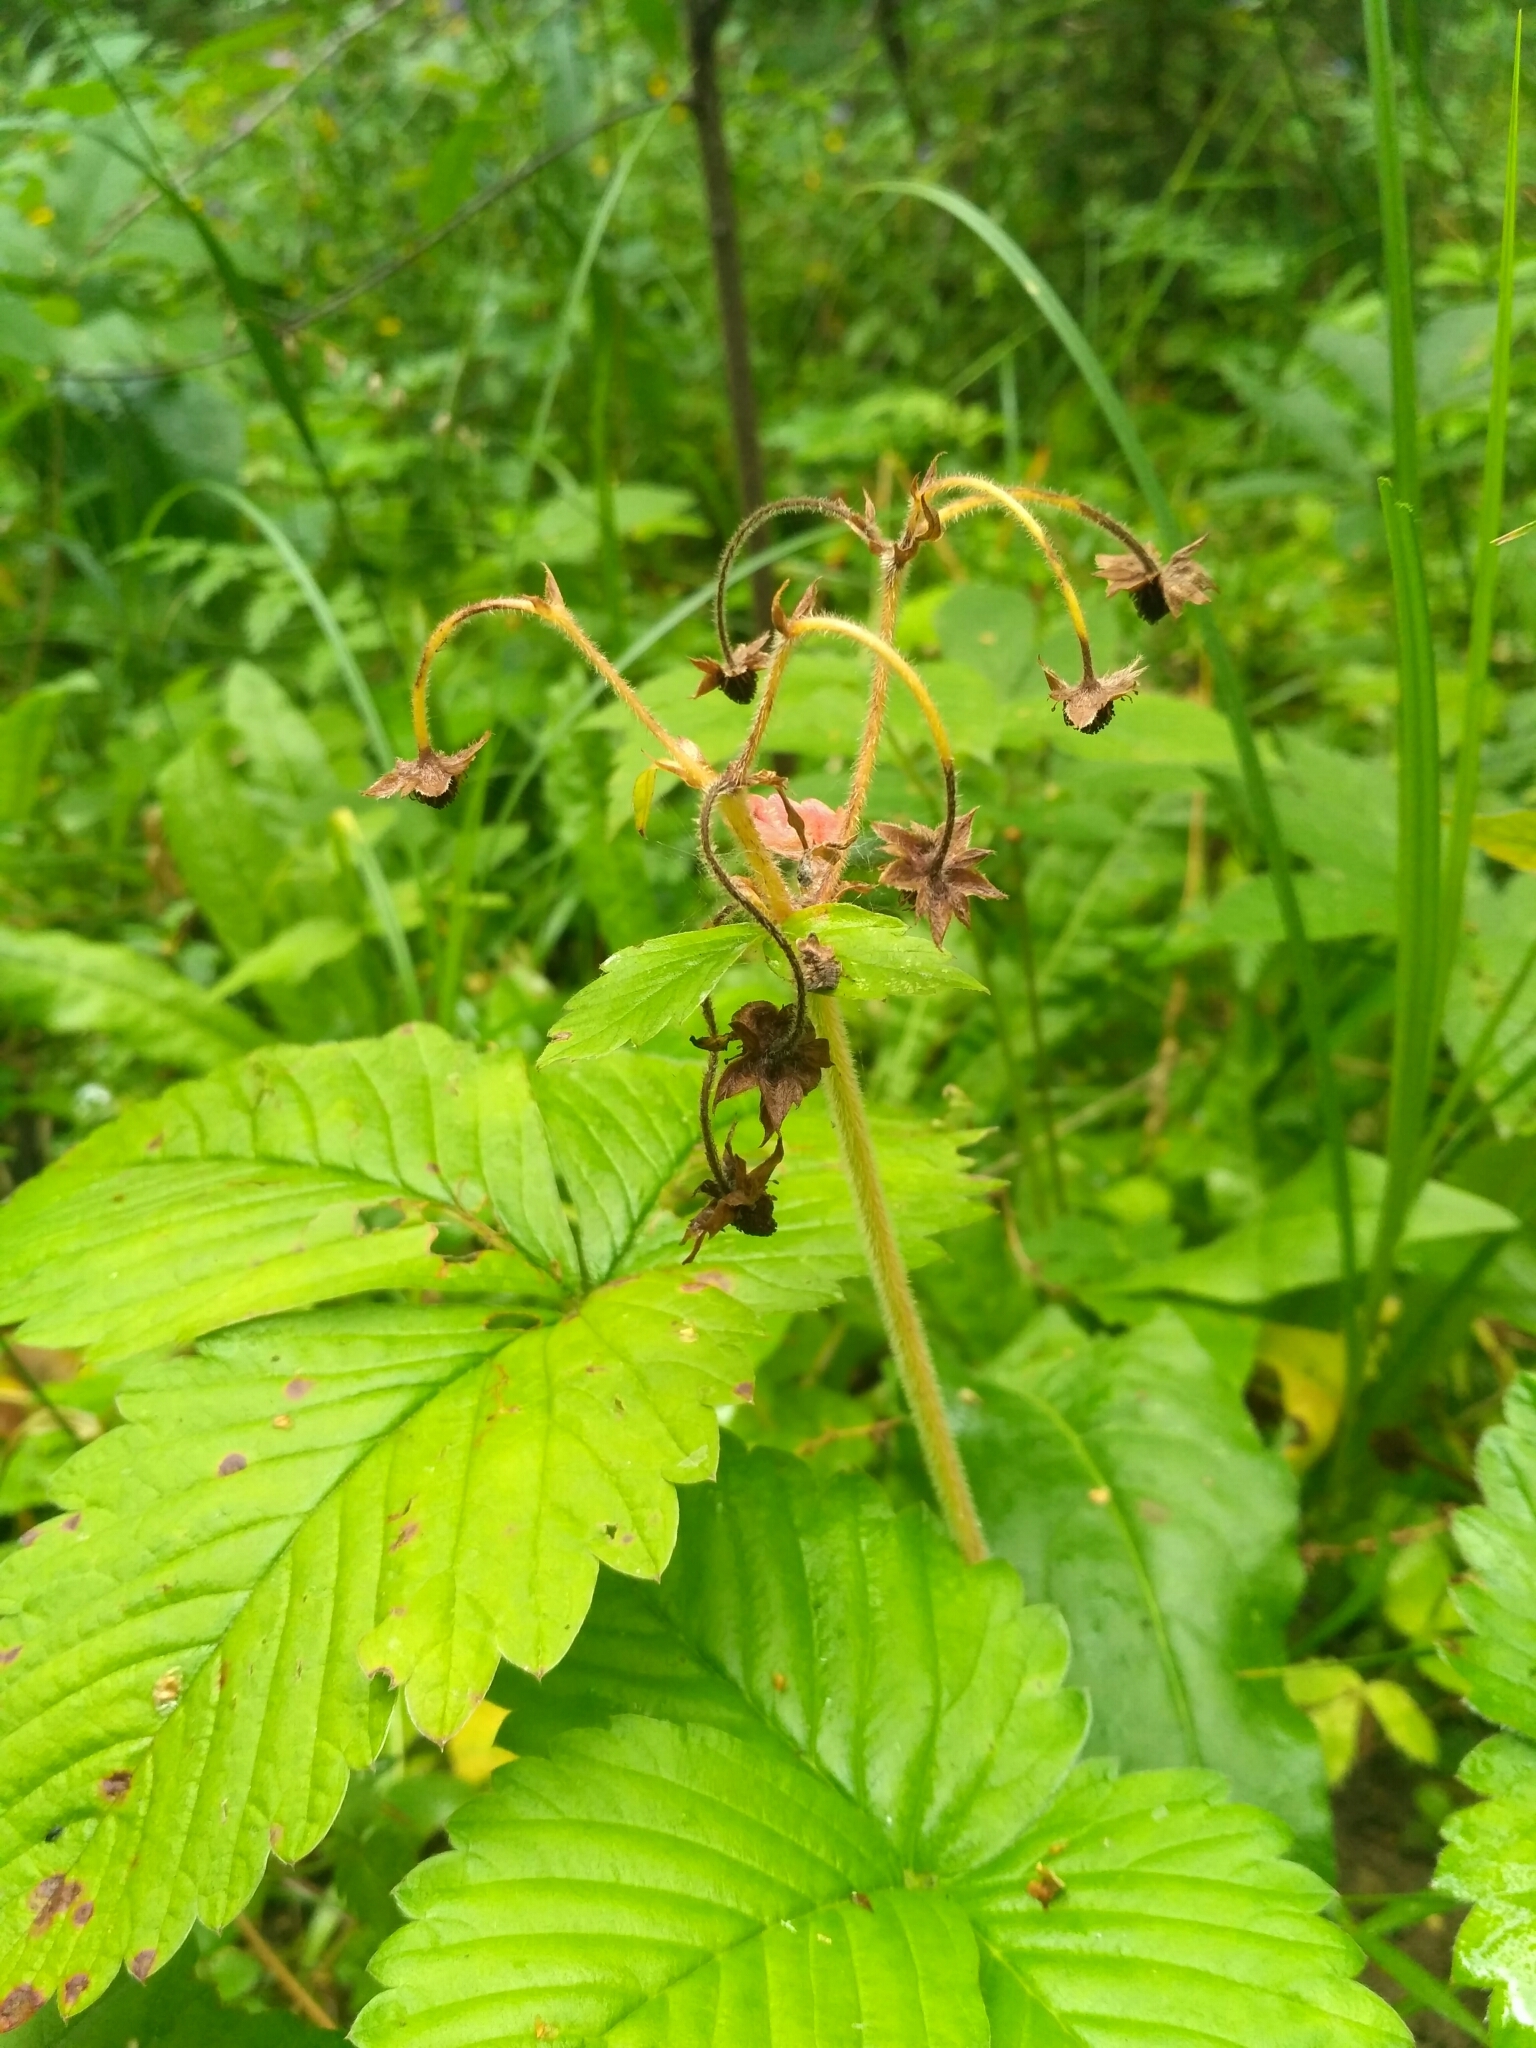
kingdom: Plantae
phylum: Tracheophyta
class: Magnoliopsida
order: Rosales
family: Rosaceae
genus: Fragaria
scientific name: Fragaria moschata
